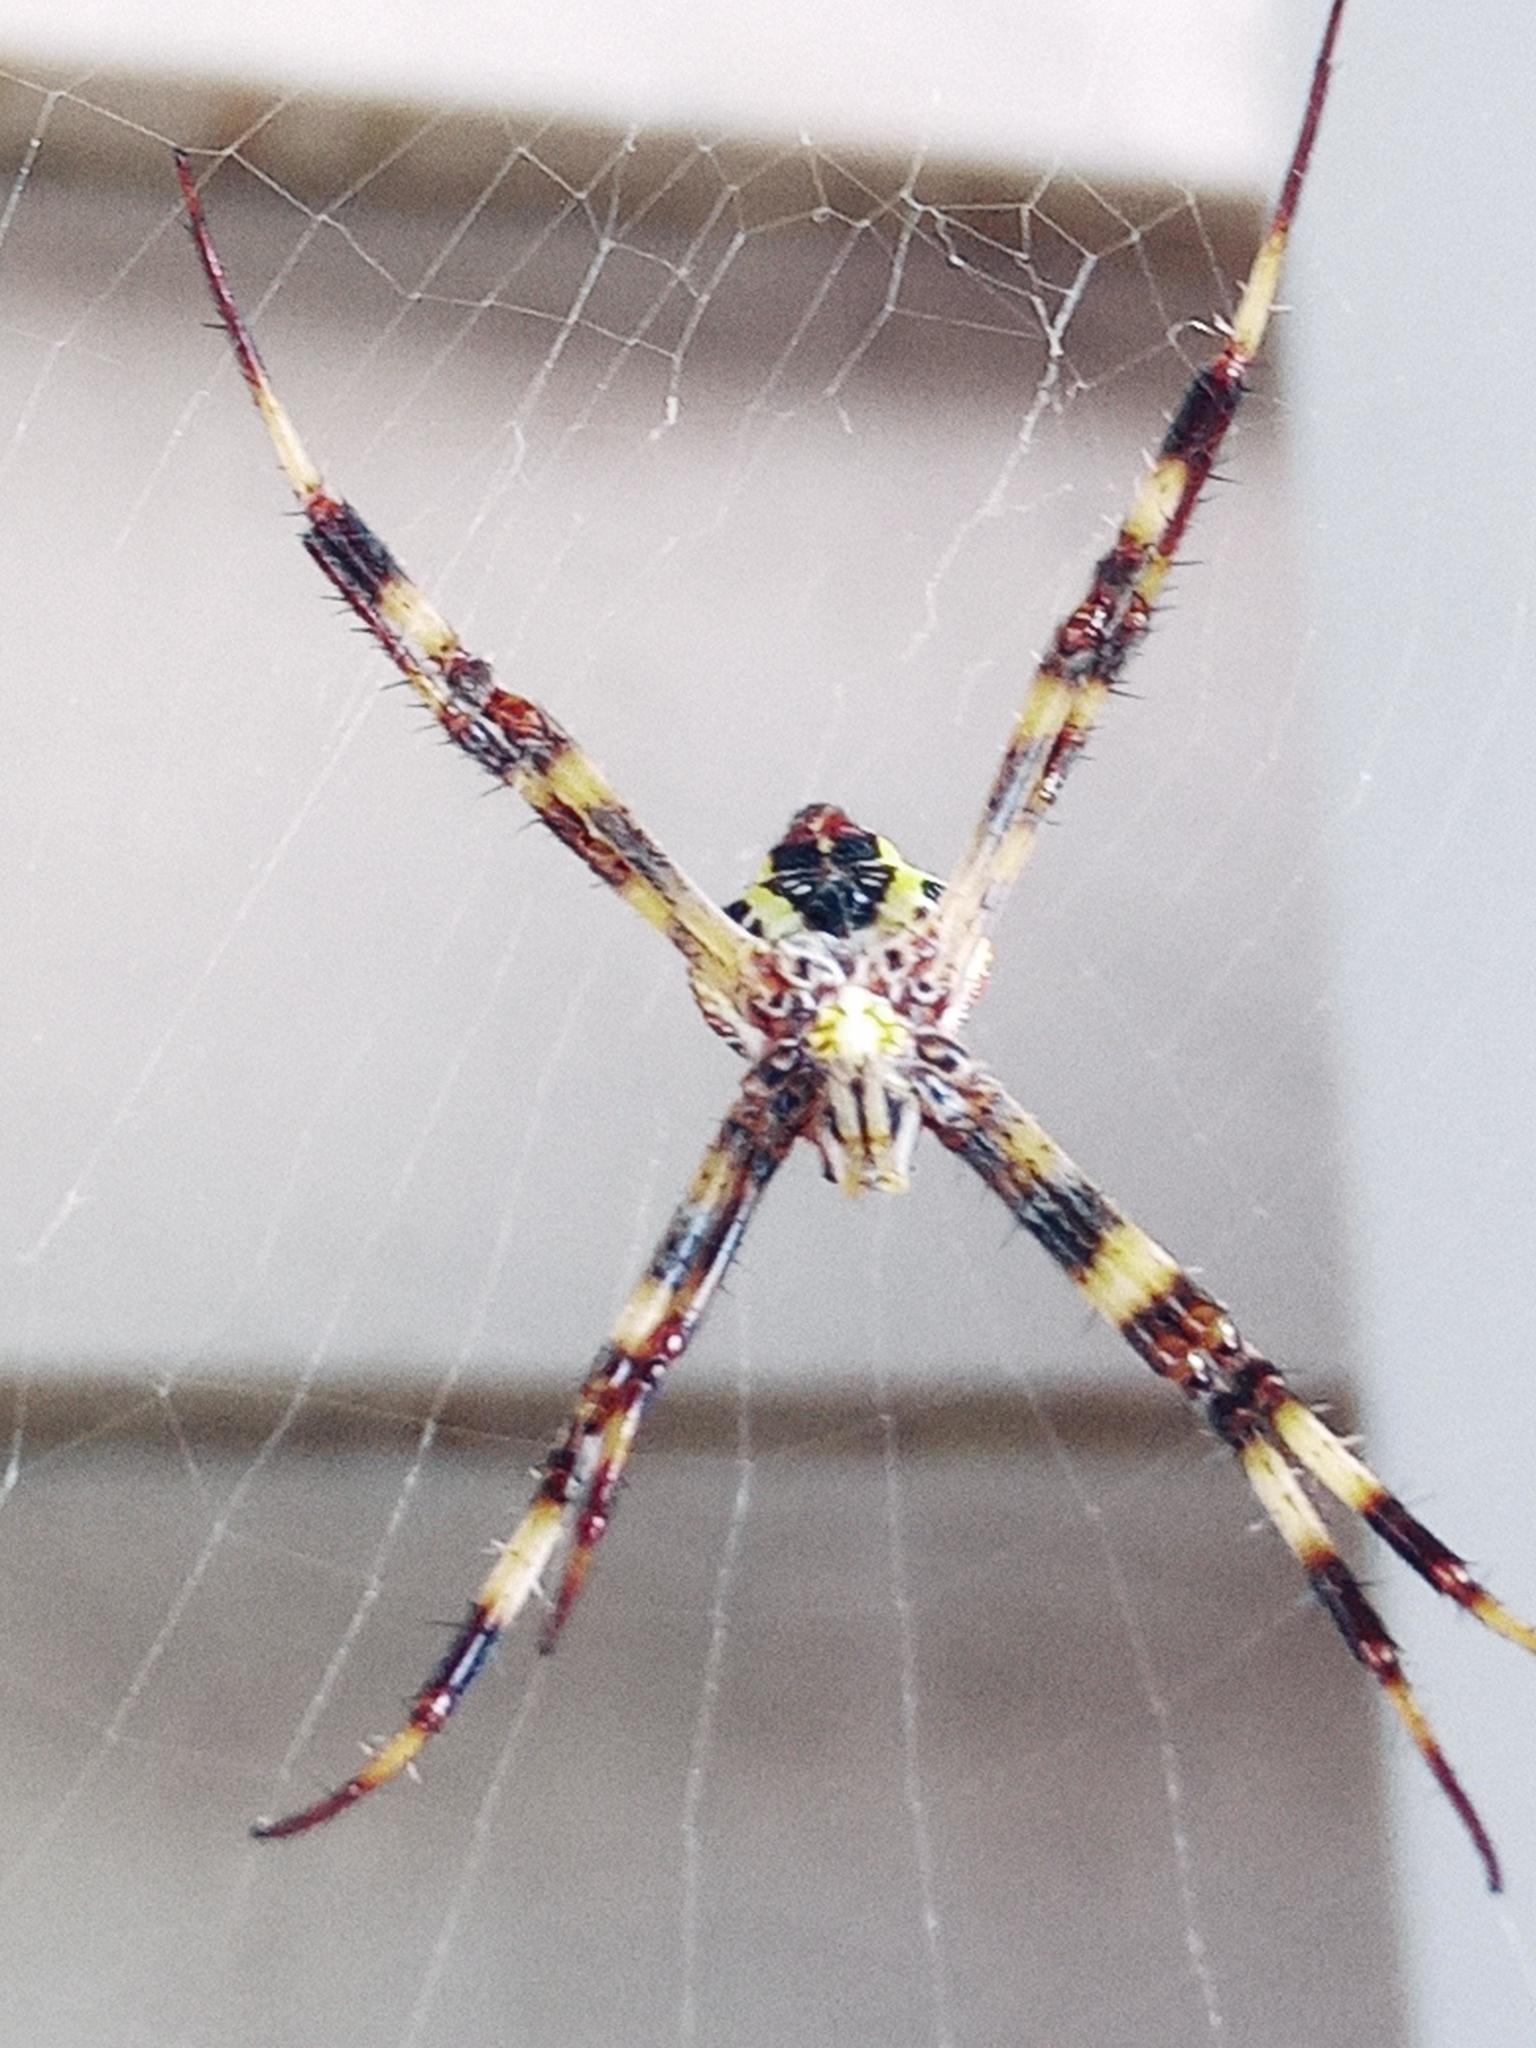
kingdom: Animalia
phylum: Arthropoda
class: Arachnida
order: Araneae
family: Araneidae
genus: Argiope
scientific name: Argiope aetherea
